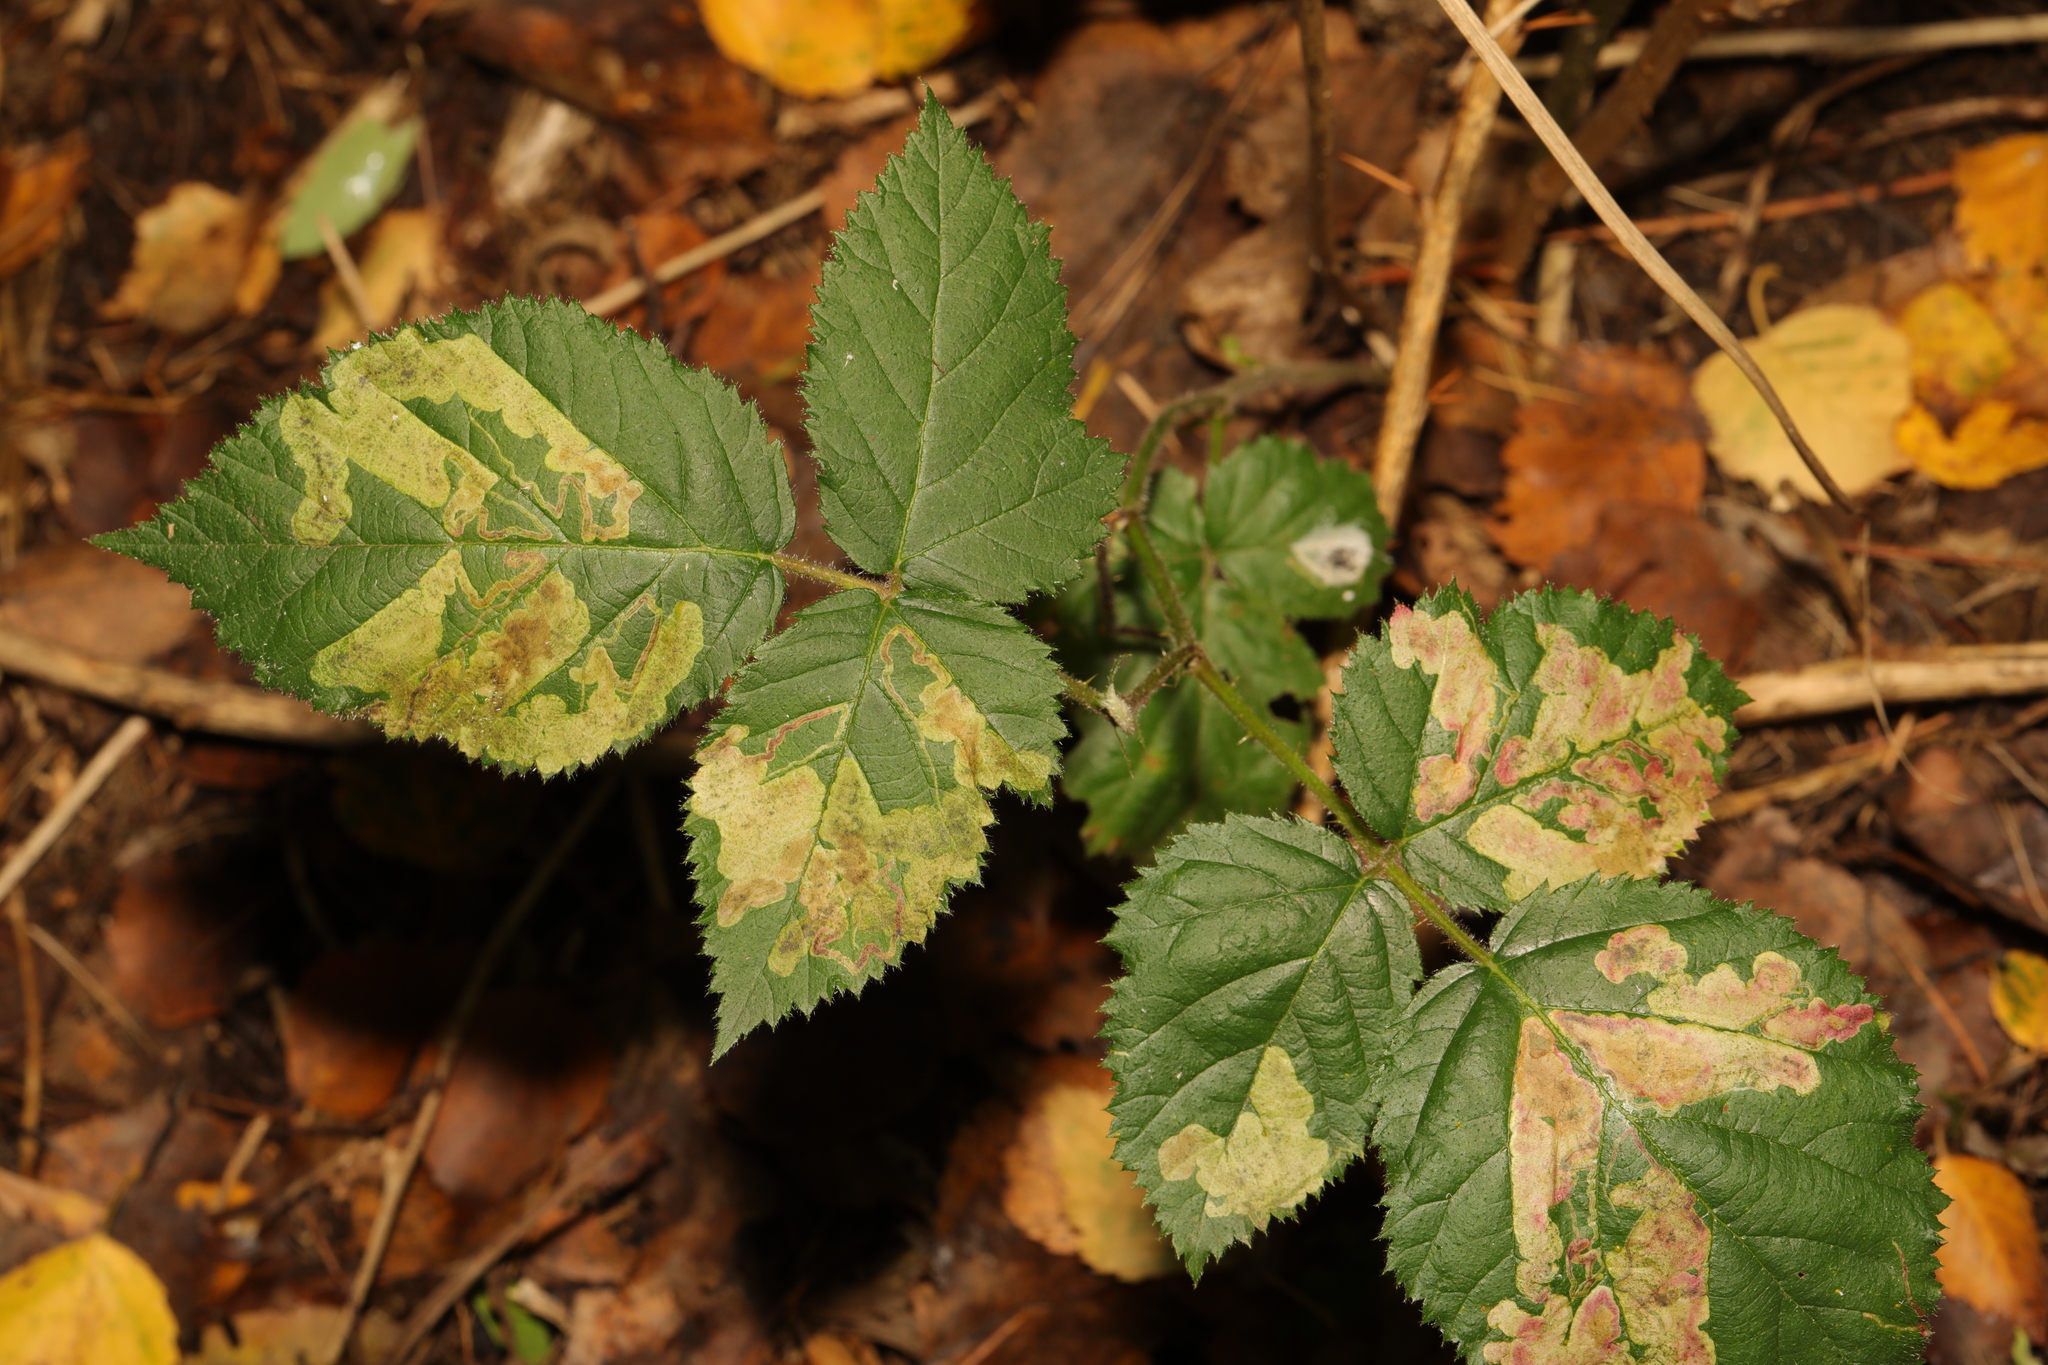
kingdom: Plantae
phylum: Tracheophyta
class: Magnoliopsida
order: Rosales
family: Rosaceae
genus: Rubus
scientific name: Rubus fruticosus
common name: Blackberry, bramble
